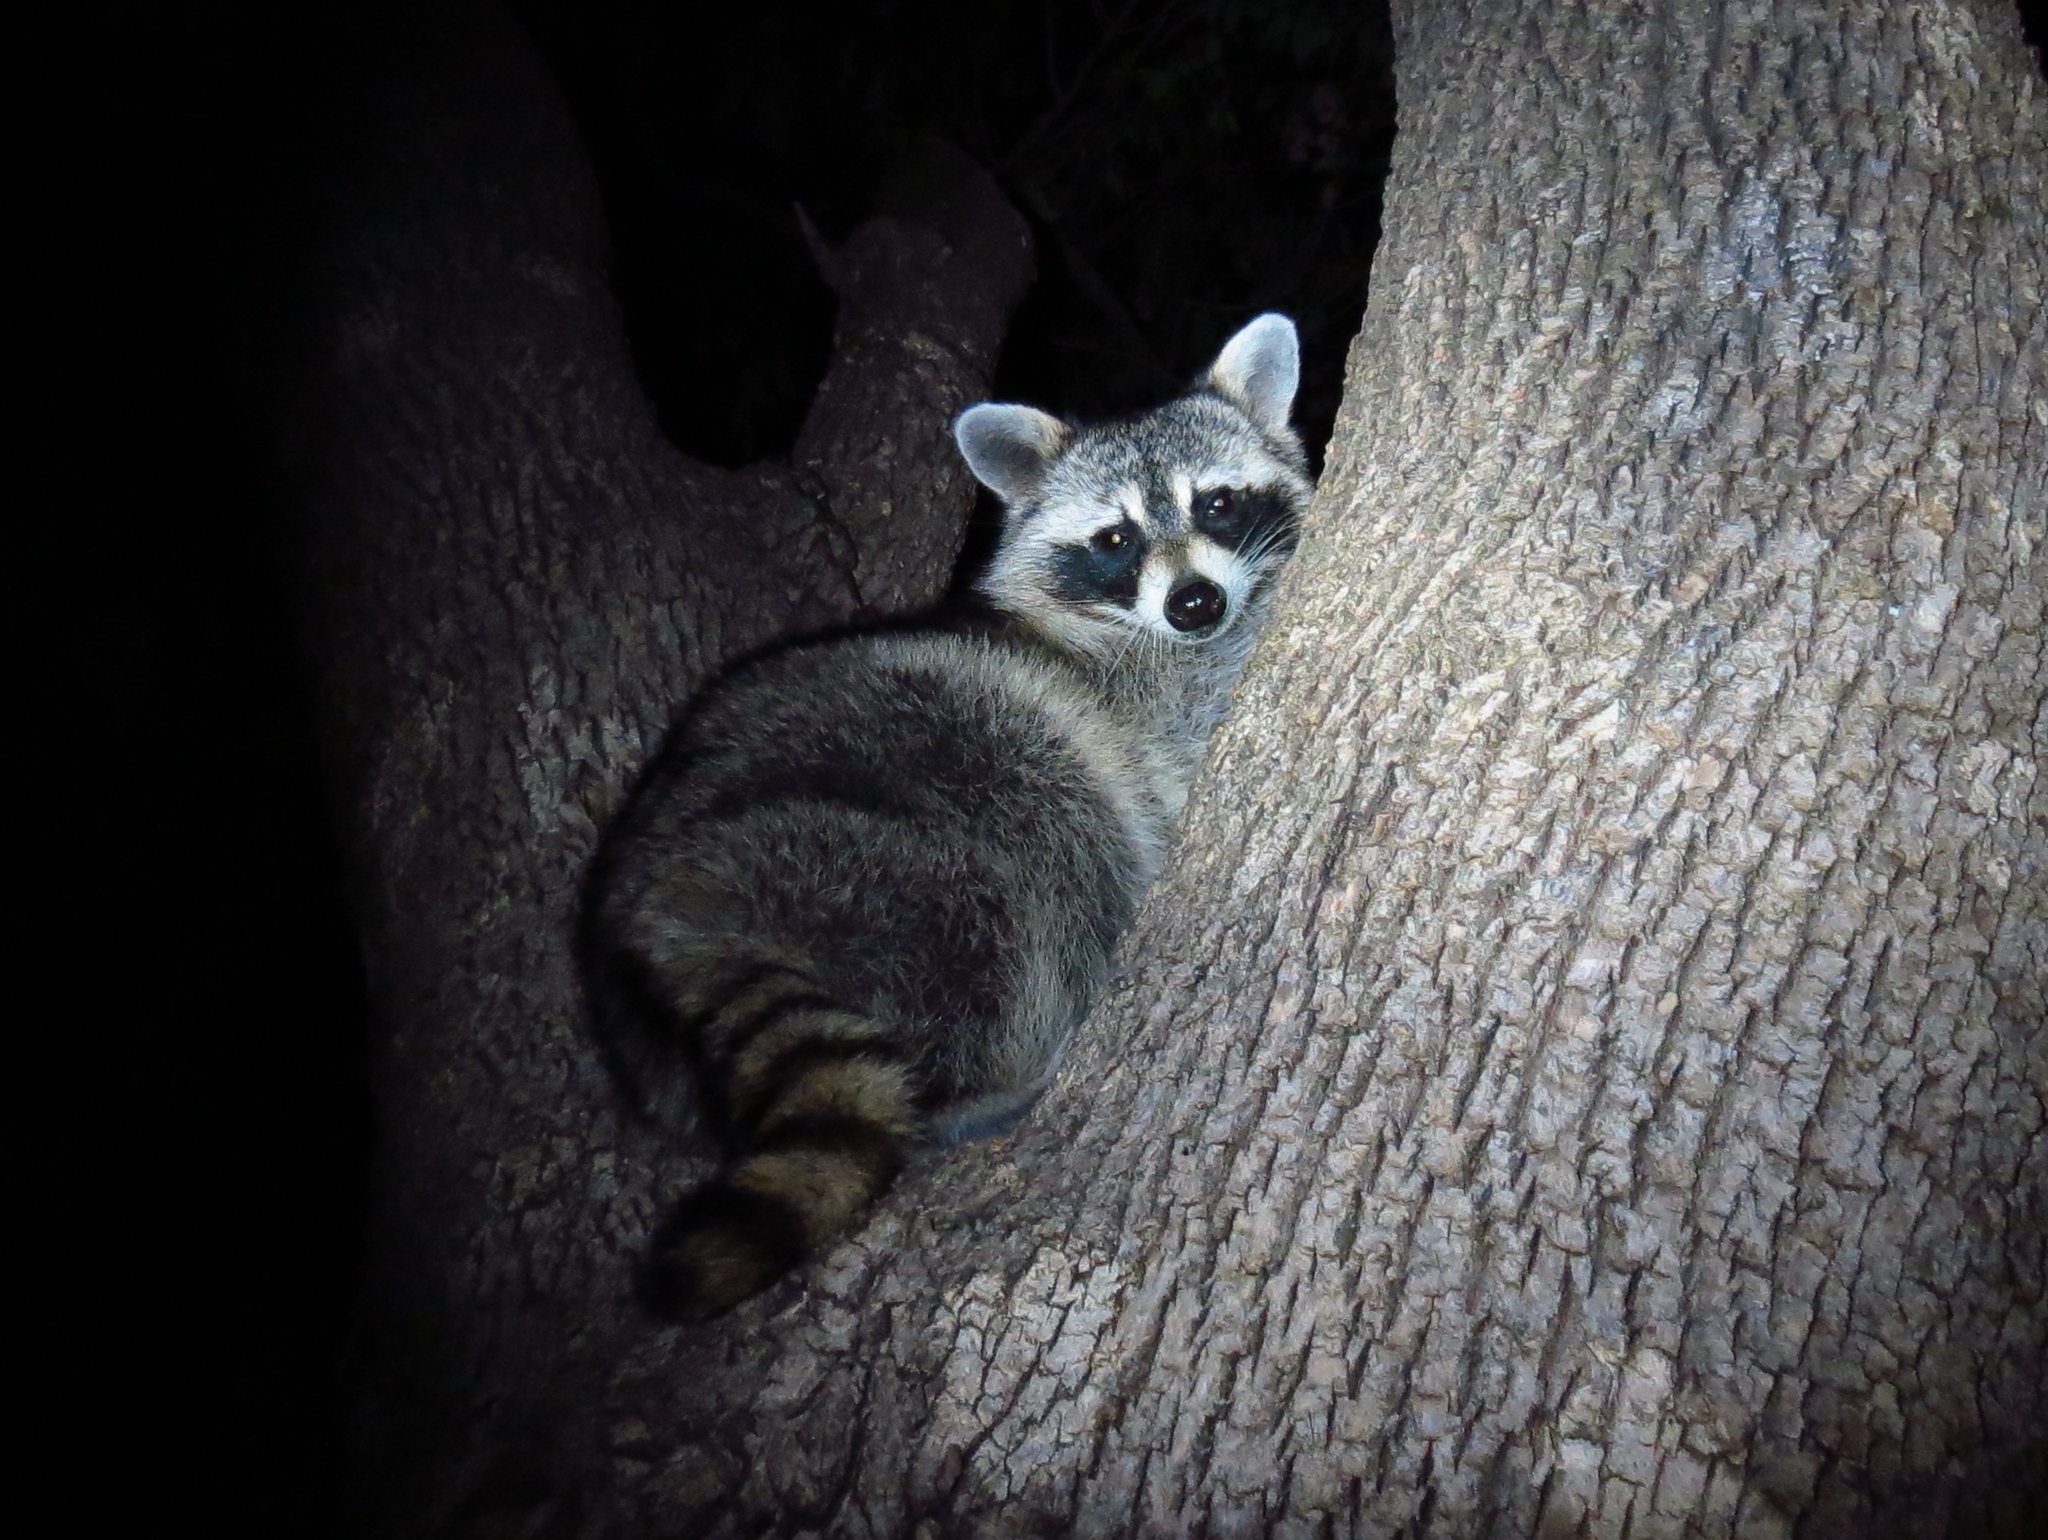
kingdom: Animalia
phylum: Chordata
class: Mammalia
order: Carnivora
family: Procyonidae
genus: Procyon
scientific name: Procyon lotor
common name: Raccoon
